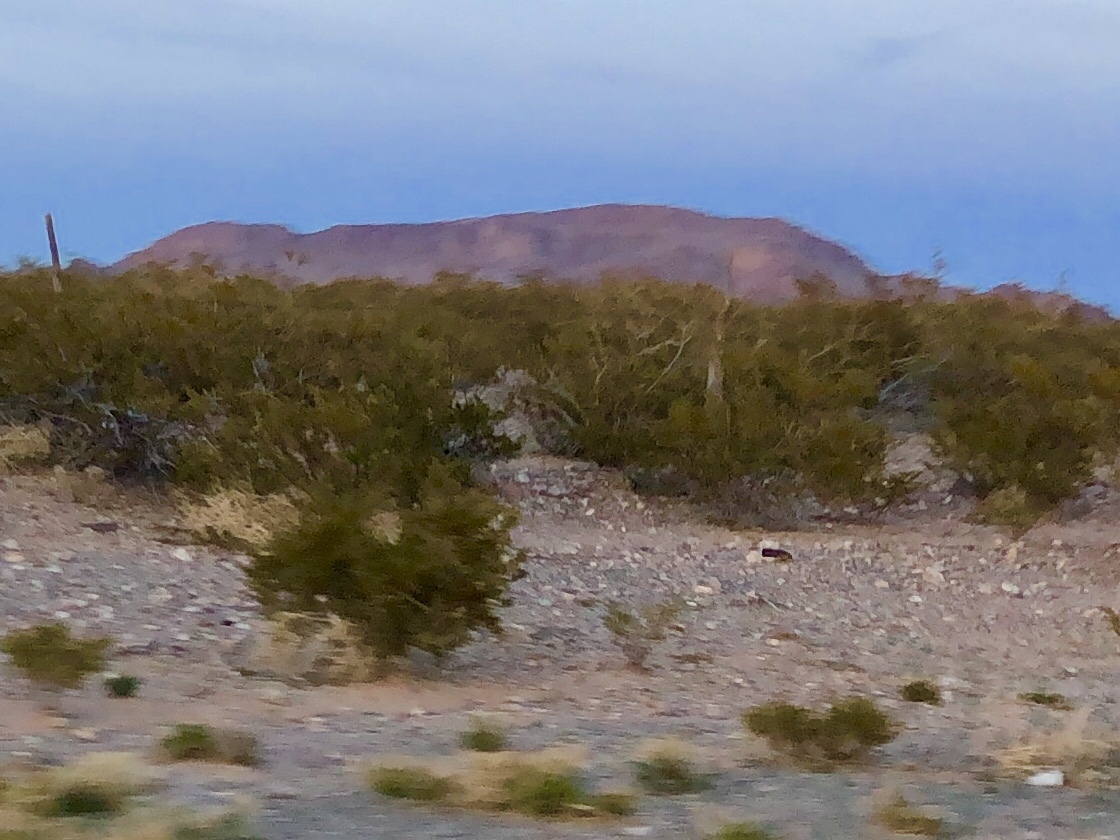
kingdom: Plantae
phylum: Tracheophyta
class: Magnoliopsida
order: Zygophyllales
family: Zygophyllaceae
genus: Larrea
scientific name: Larrea tridentata
